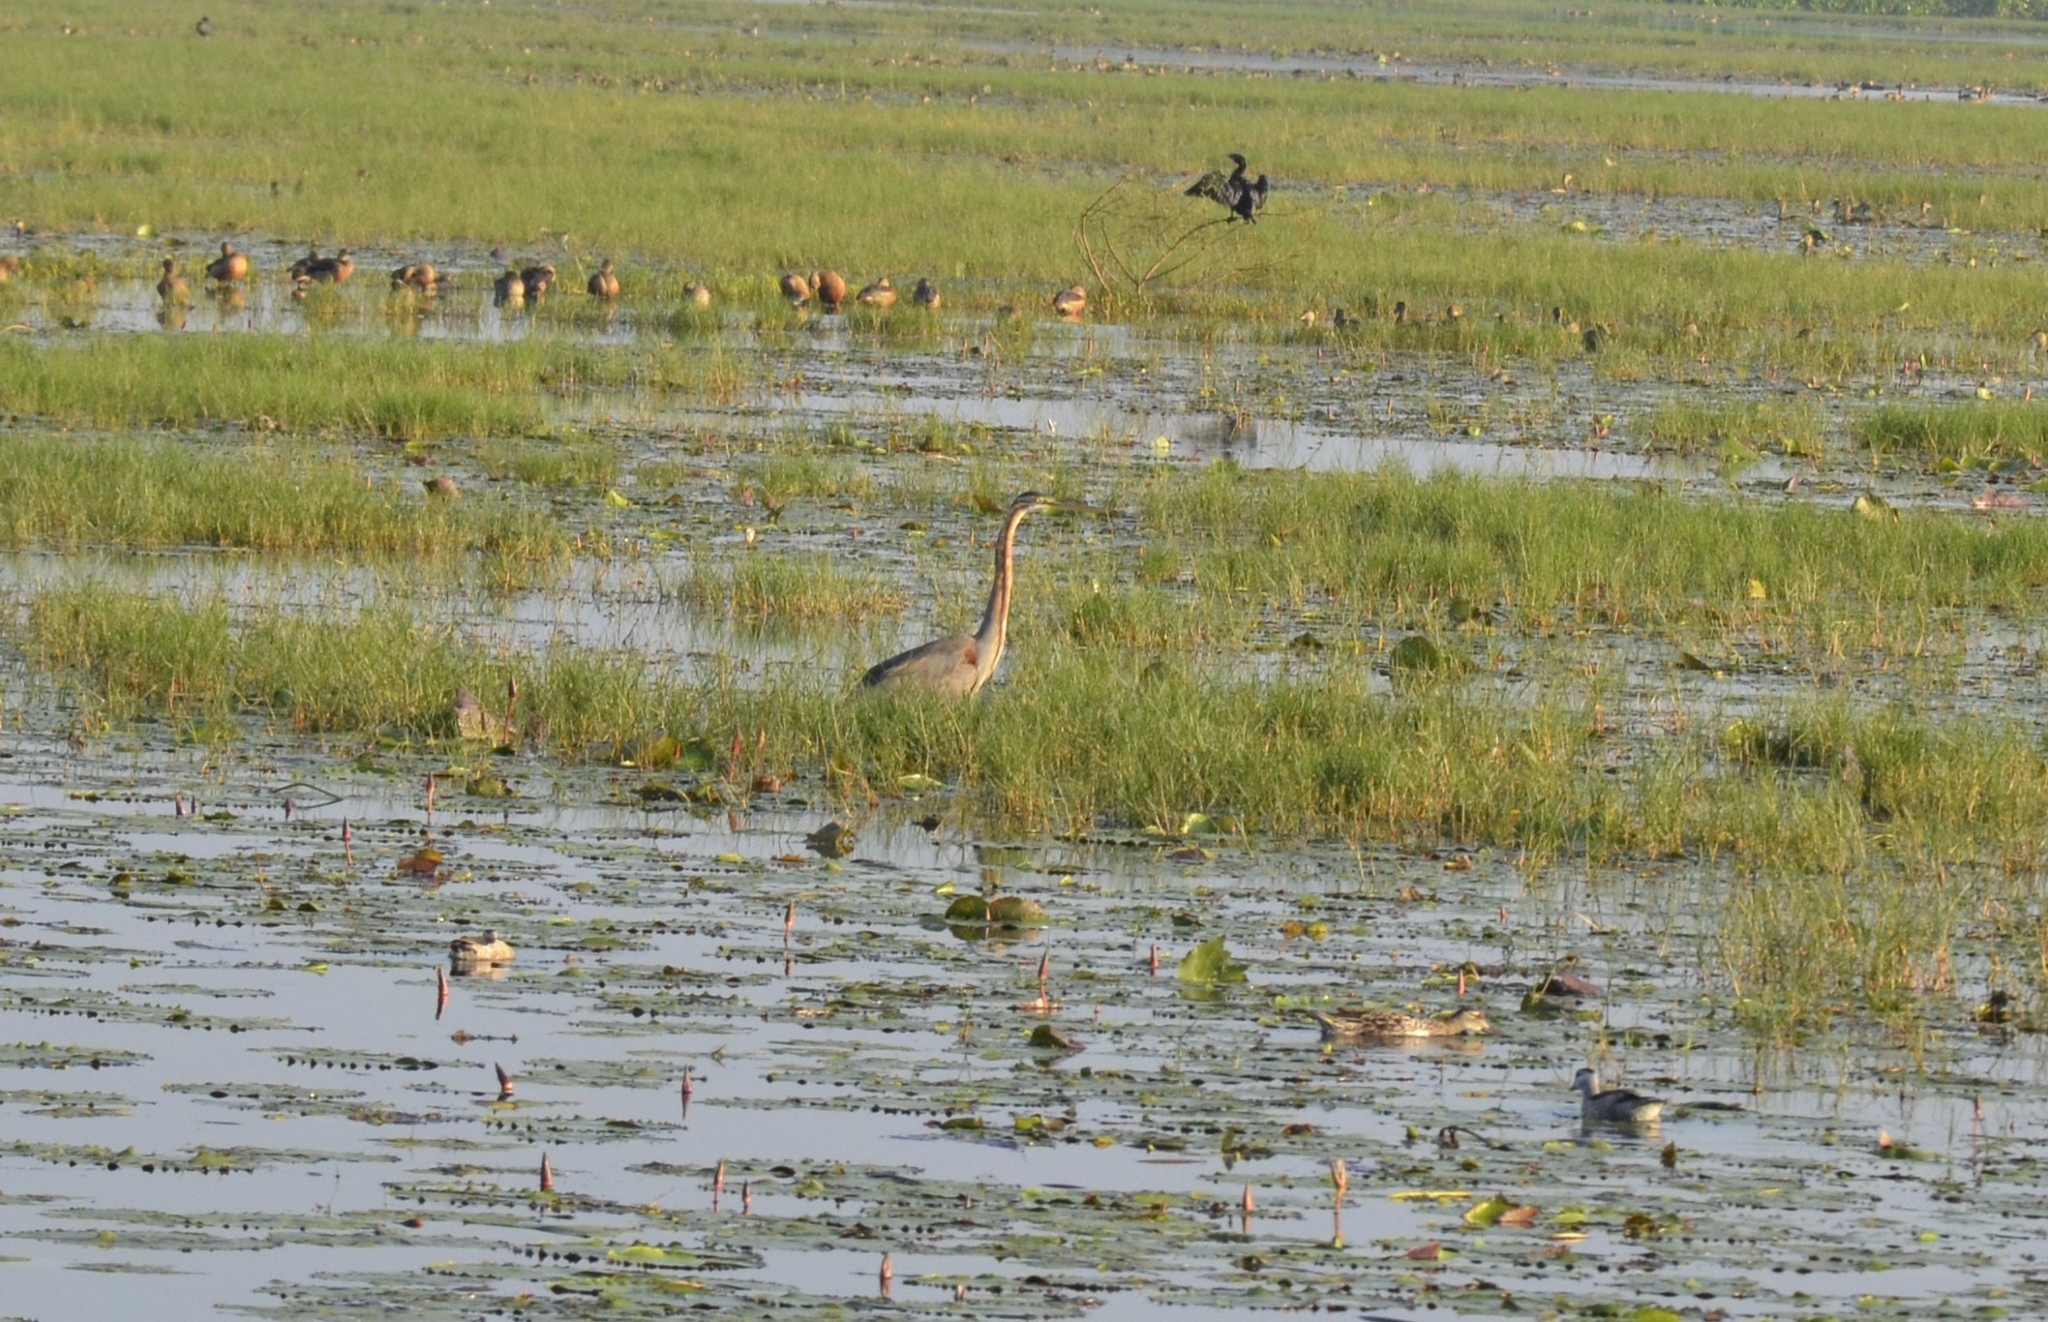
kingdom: Animalia
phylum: Chordata
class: Aves
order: Pelecaniformes
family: Ardeidae
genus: Ardea
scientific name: Ardea purpurea
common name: Purple heron
